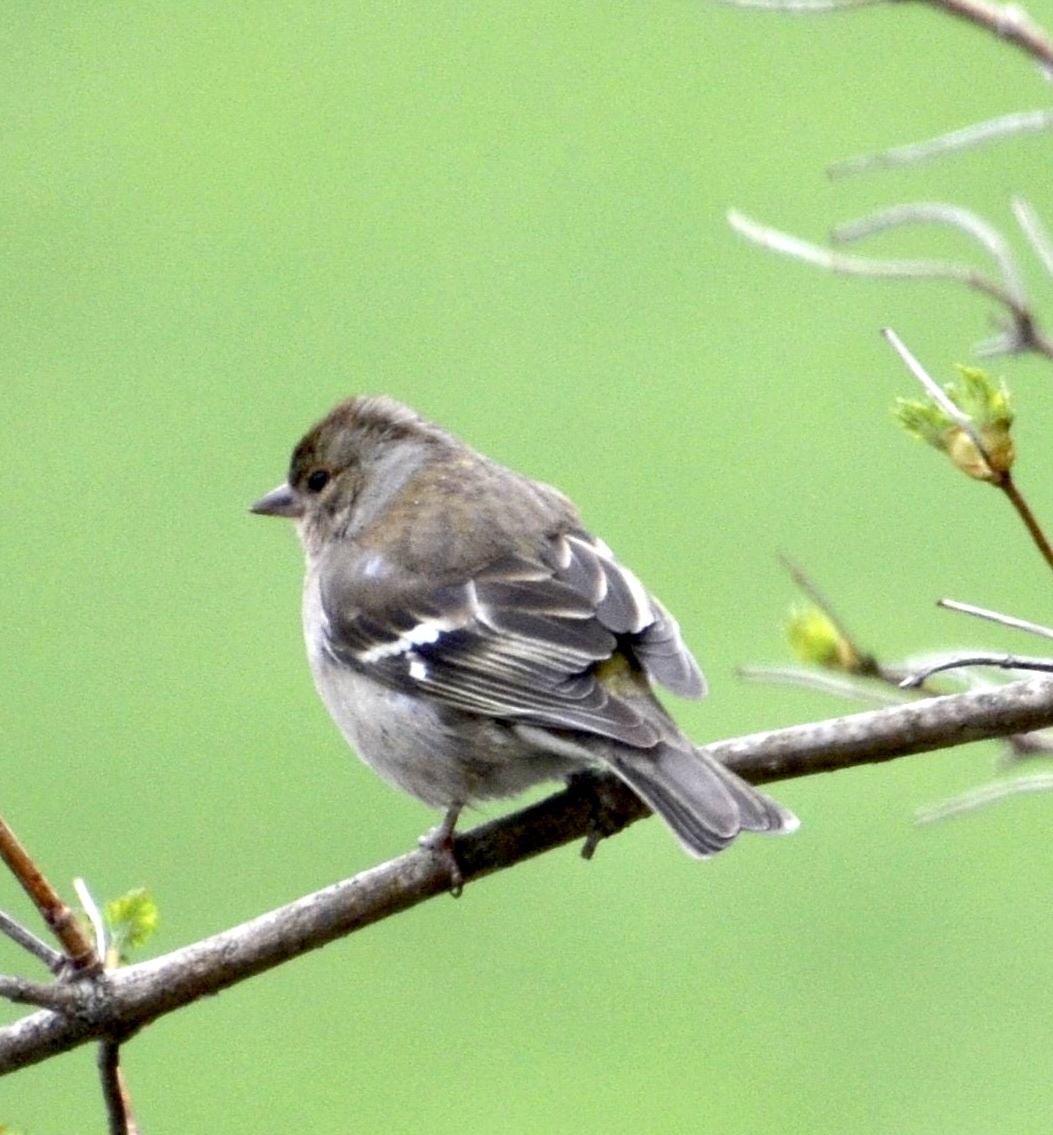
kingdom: Animalia
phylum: Chordata
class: Aves
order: Passeriformes
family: Fringillidae
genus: Fringilla
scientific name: Fringilla coelebs
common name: Common chaffinch
